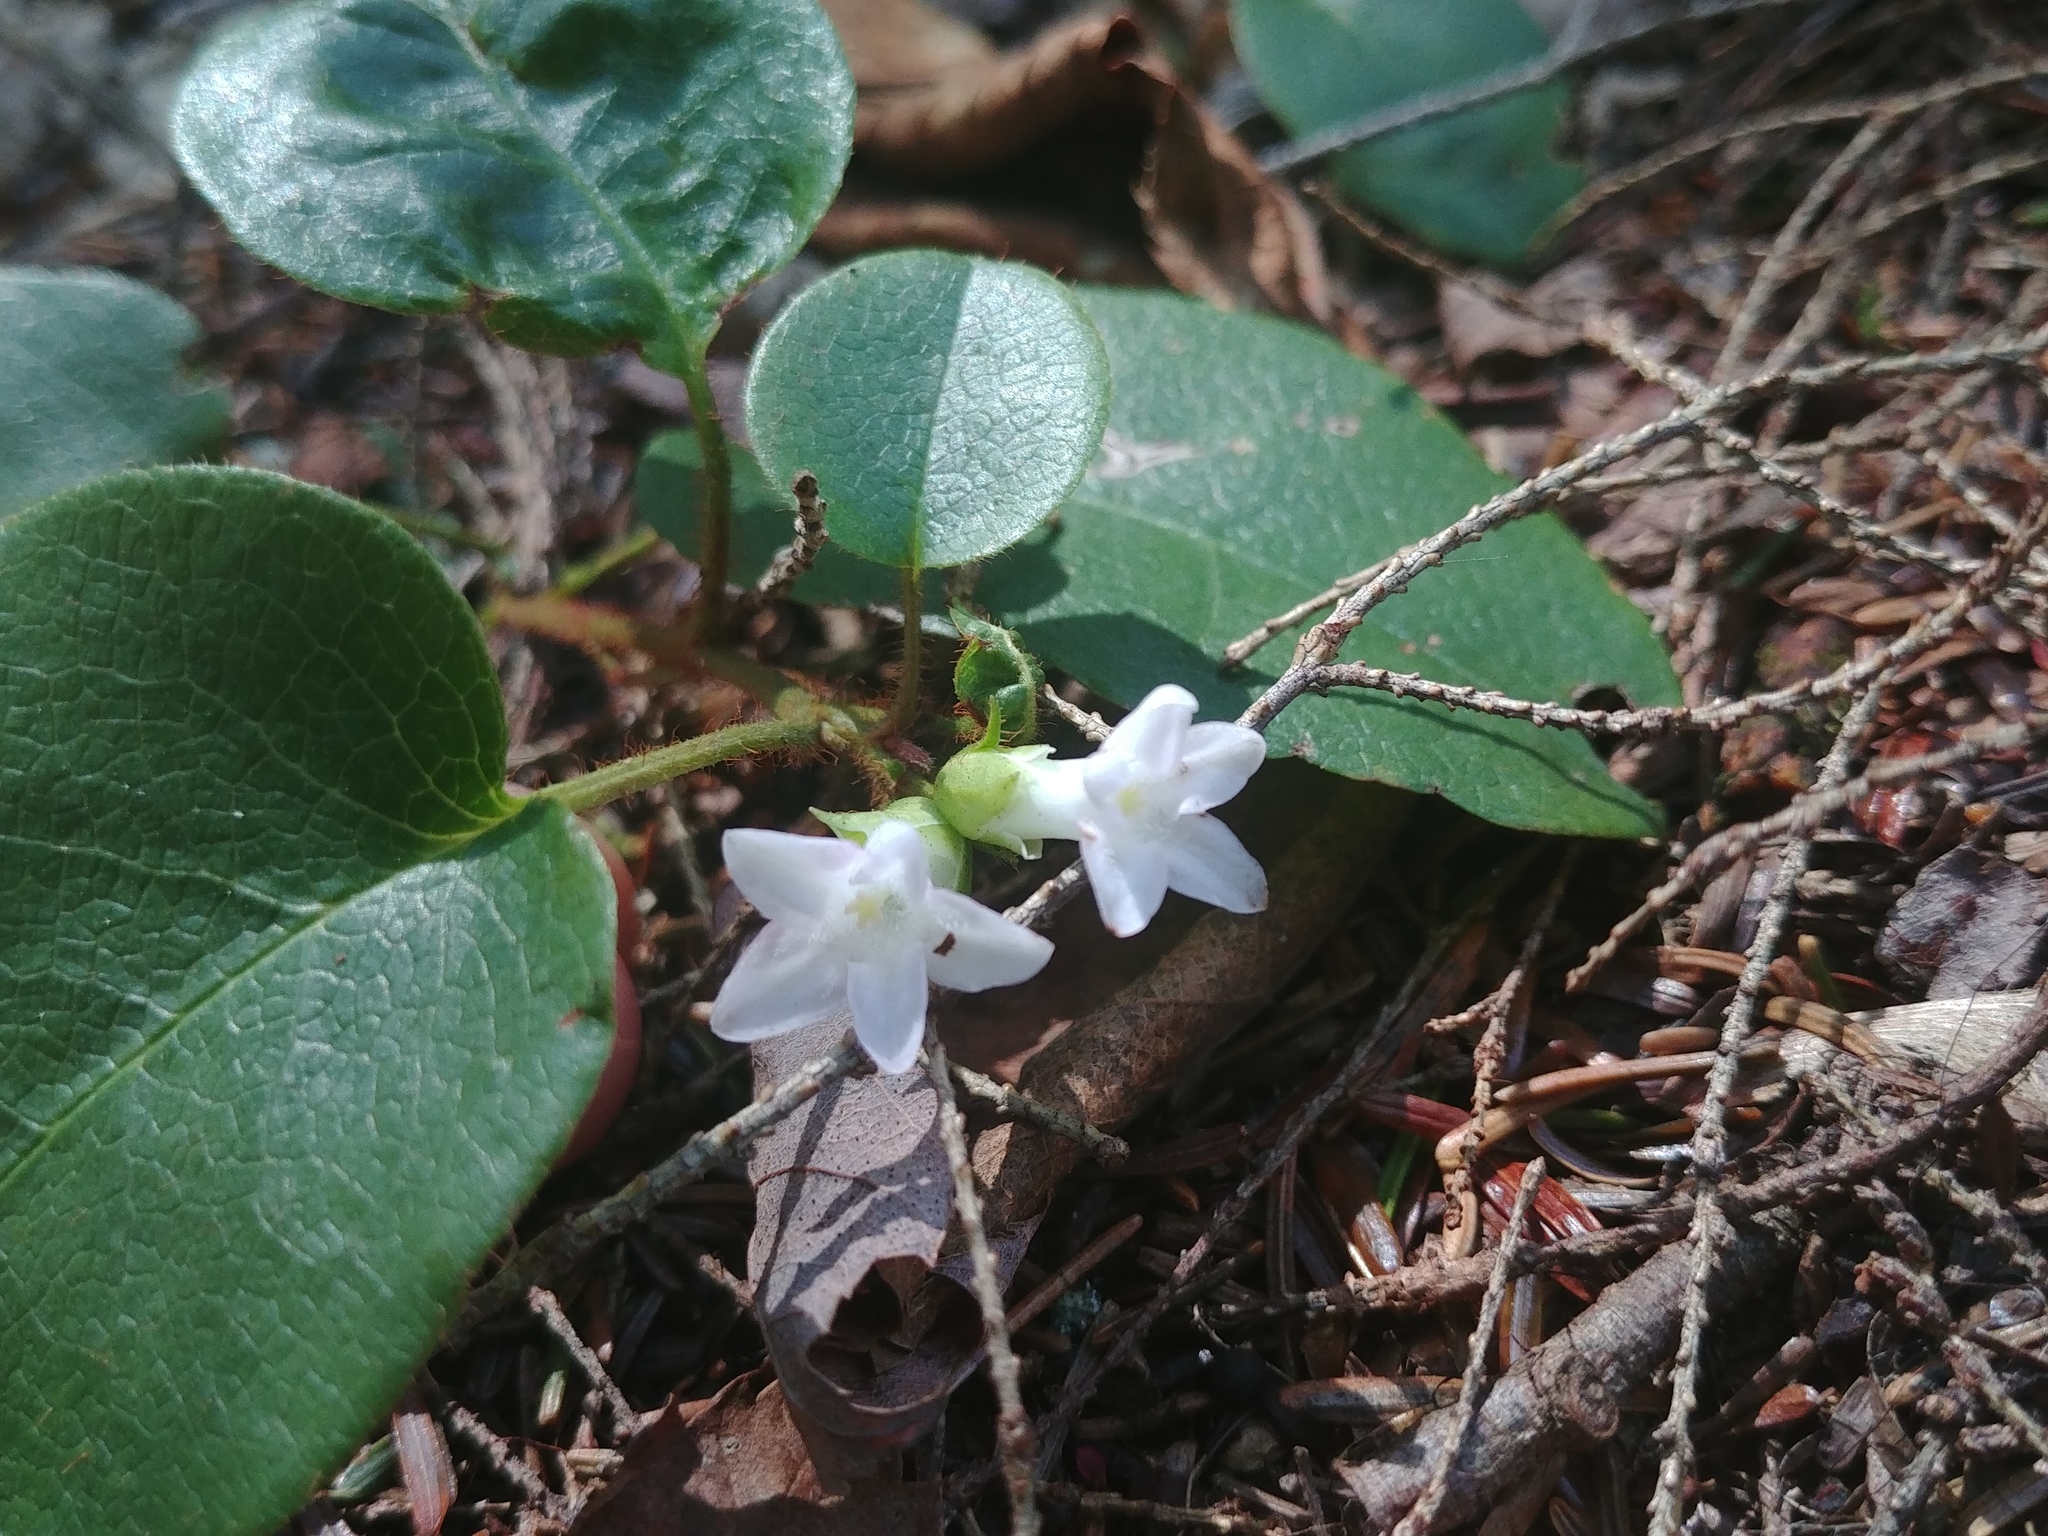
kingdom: Plantae
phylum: Tracheophyta
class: Magnoliopsida
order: Ericales
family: Ericaceae
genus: Epigaea
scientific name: Epigaea repens
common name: Gravelroot
